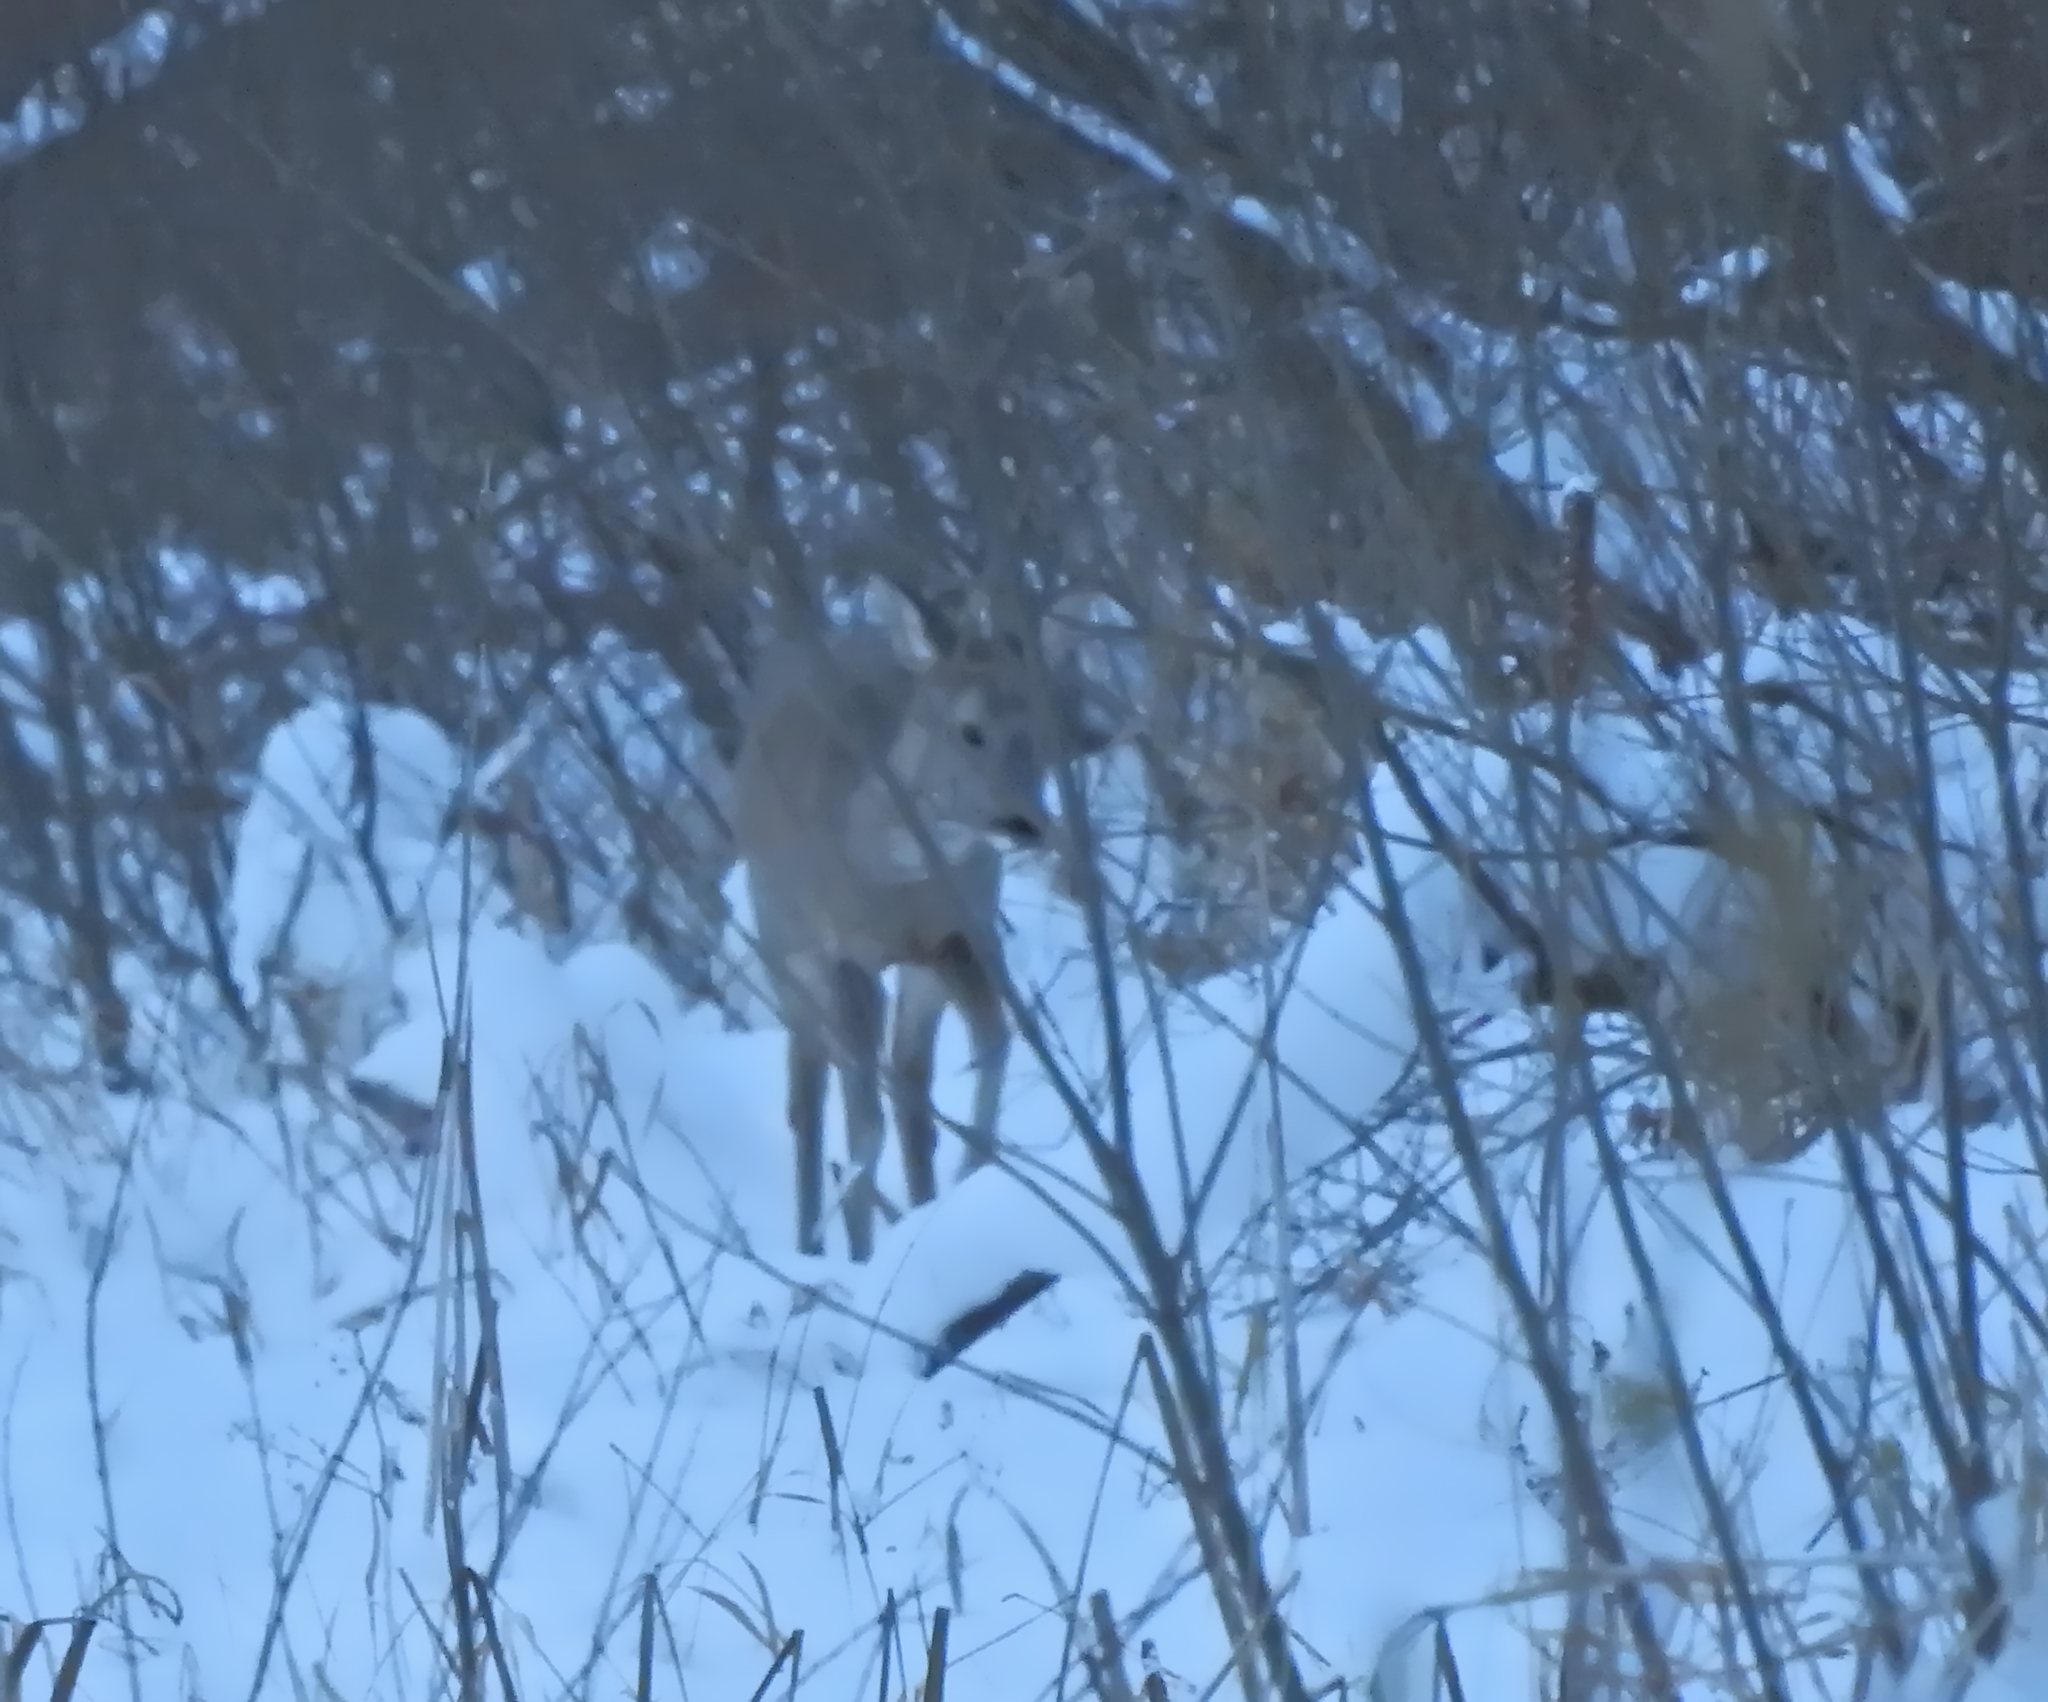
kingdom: Animalia
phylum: Chordata
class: Mammalia
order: Artiodactyla
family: Cervidae
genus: Capreolus
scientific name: Capreolus capreolus
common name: Western roe deer
